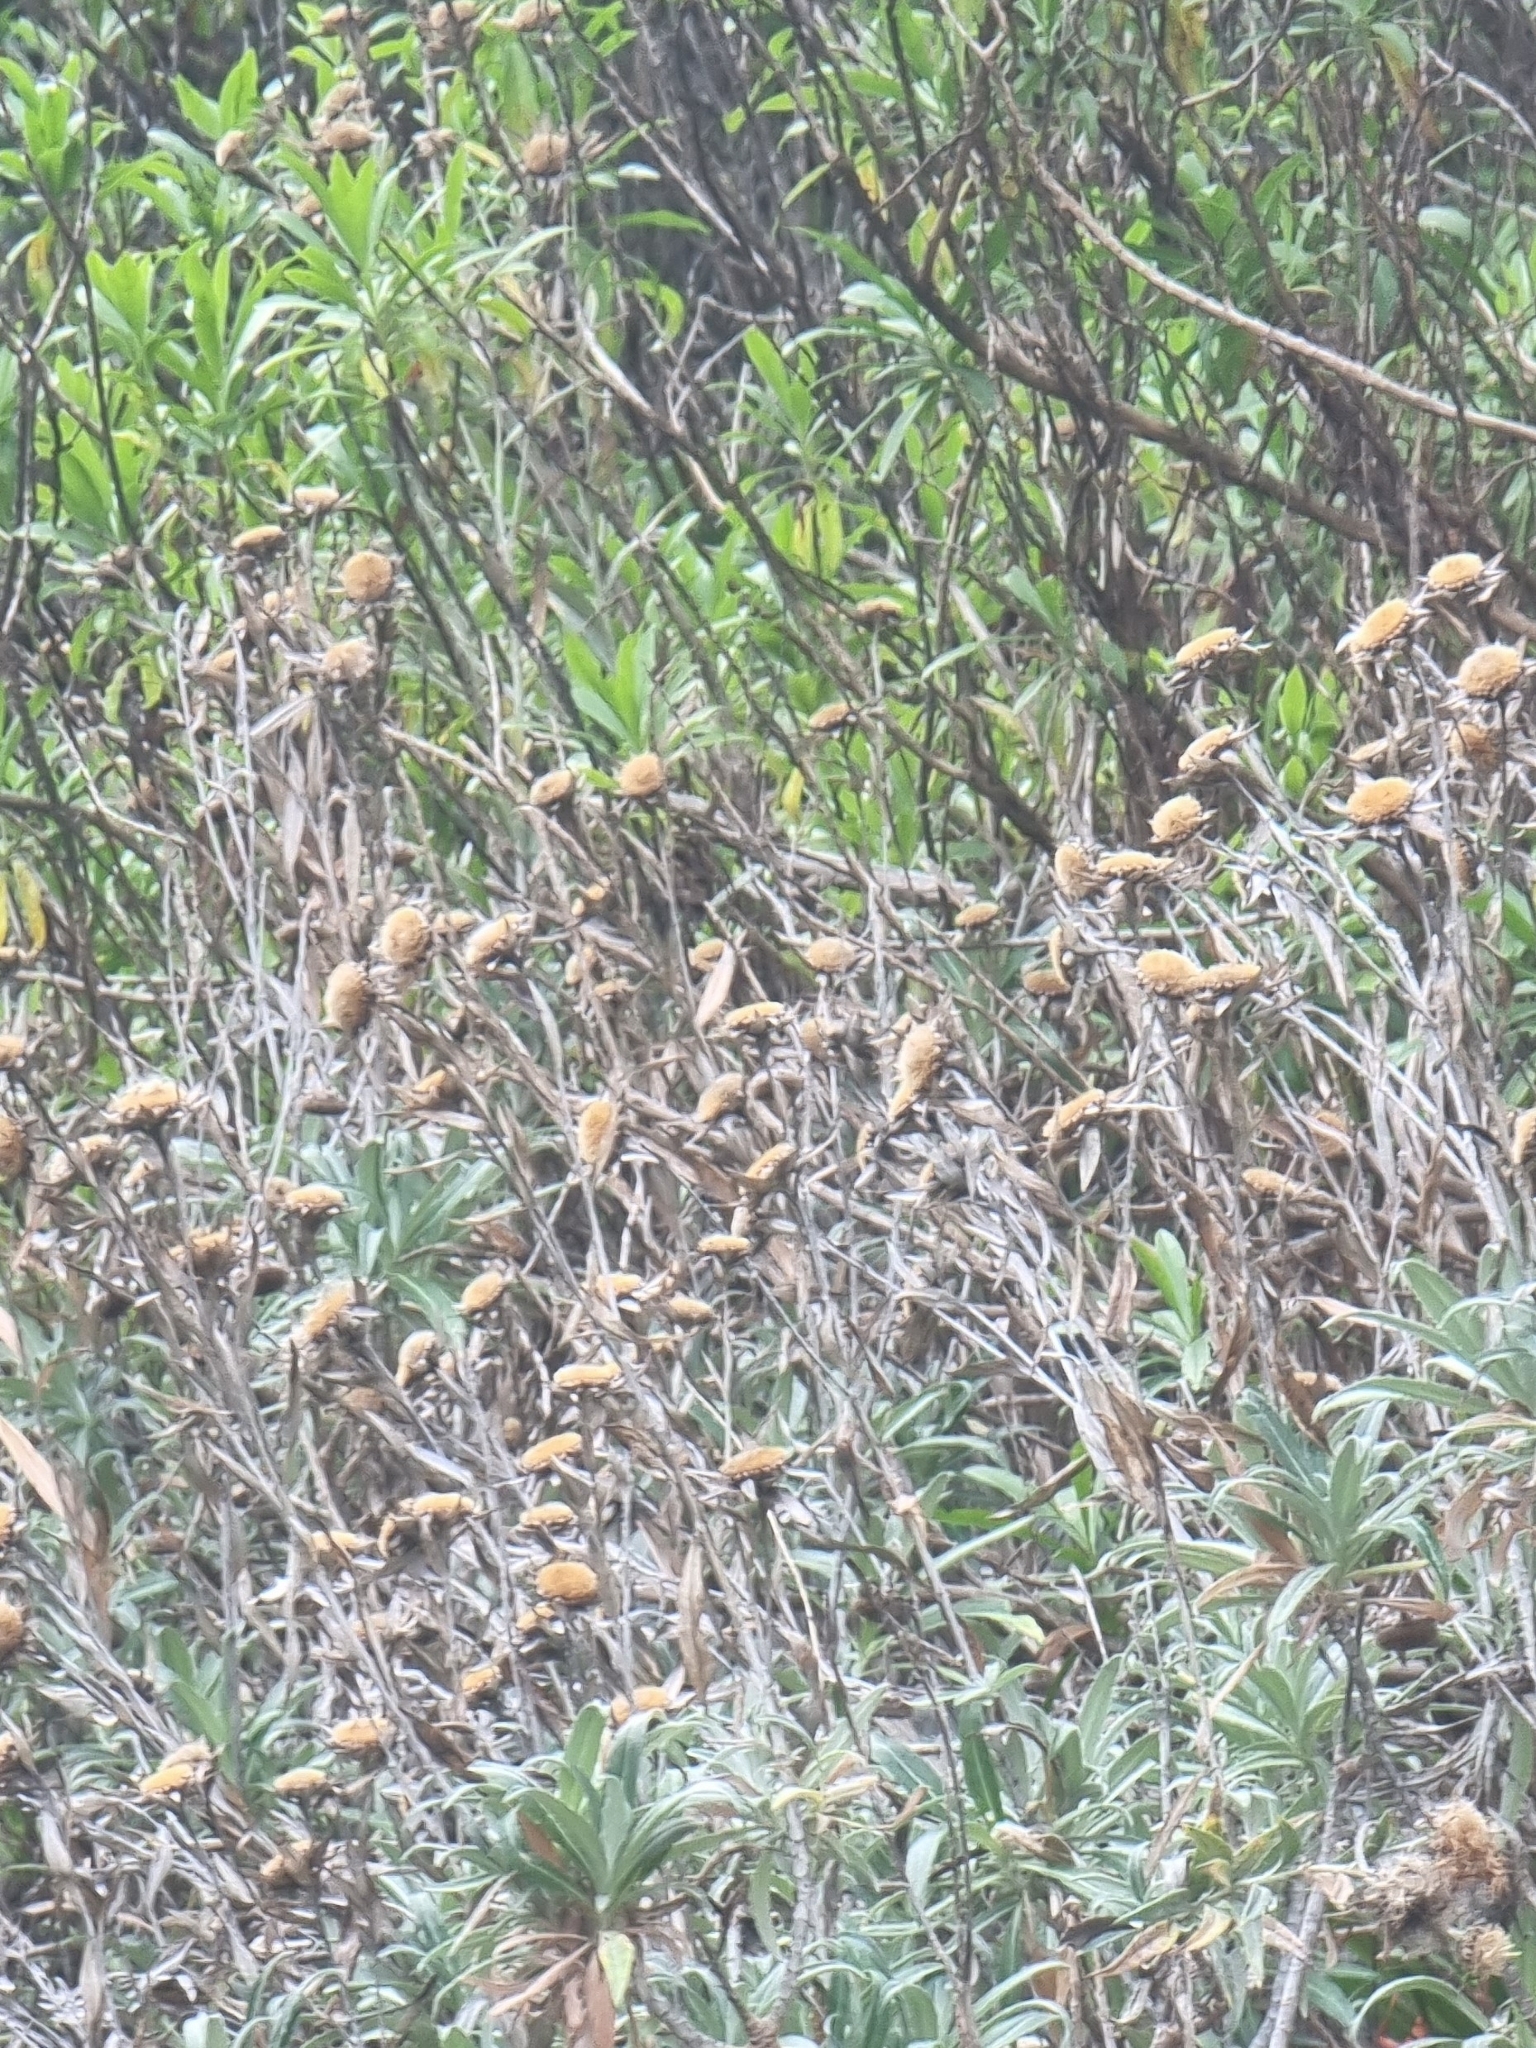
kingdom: Plantae
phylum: Tracheophyta
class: Magnoliopsida
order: Asterales
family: Asteraceae
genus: Carlina
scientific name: Carlina salicifolia
